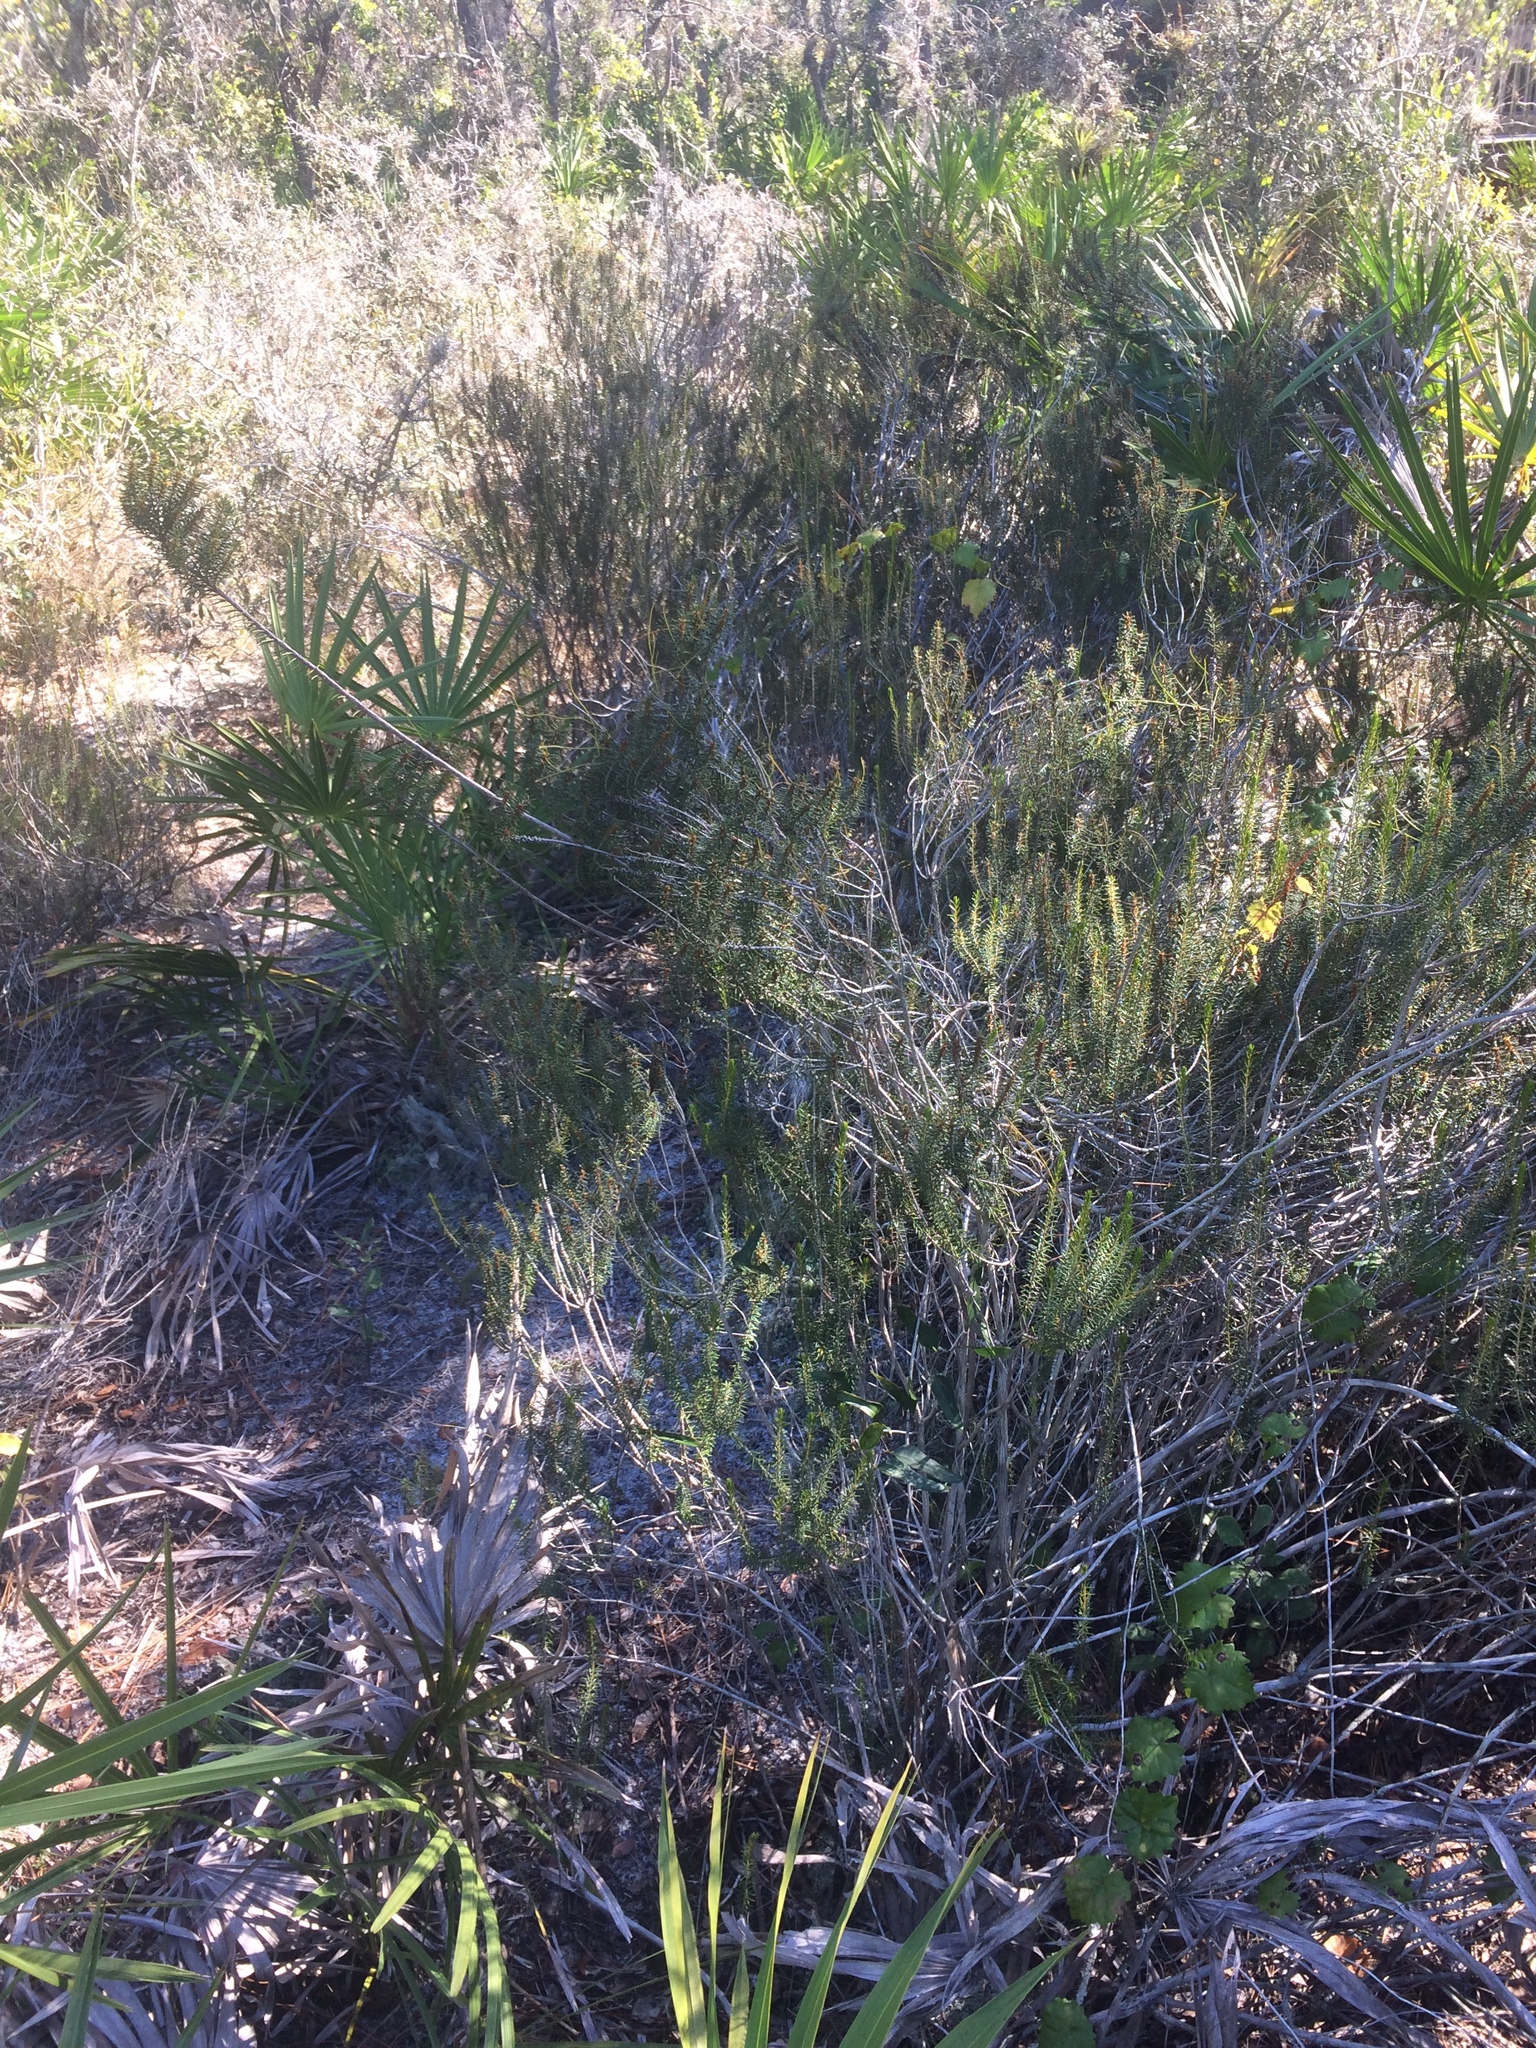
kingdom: Plantae
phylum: Tracheophyta
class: Magnoliopsida
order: Ericales
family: Ericaceae
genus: Ceratiola
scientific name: Ceratiola ericoides
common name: Sandhill-rosemary
